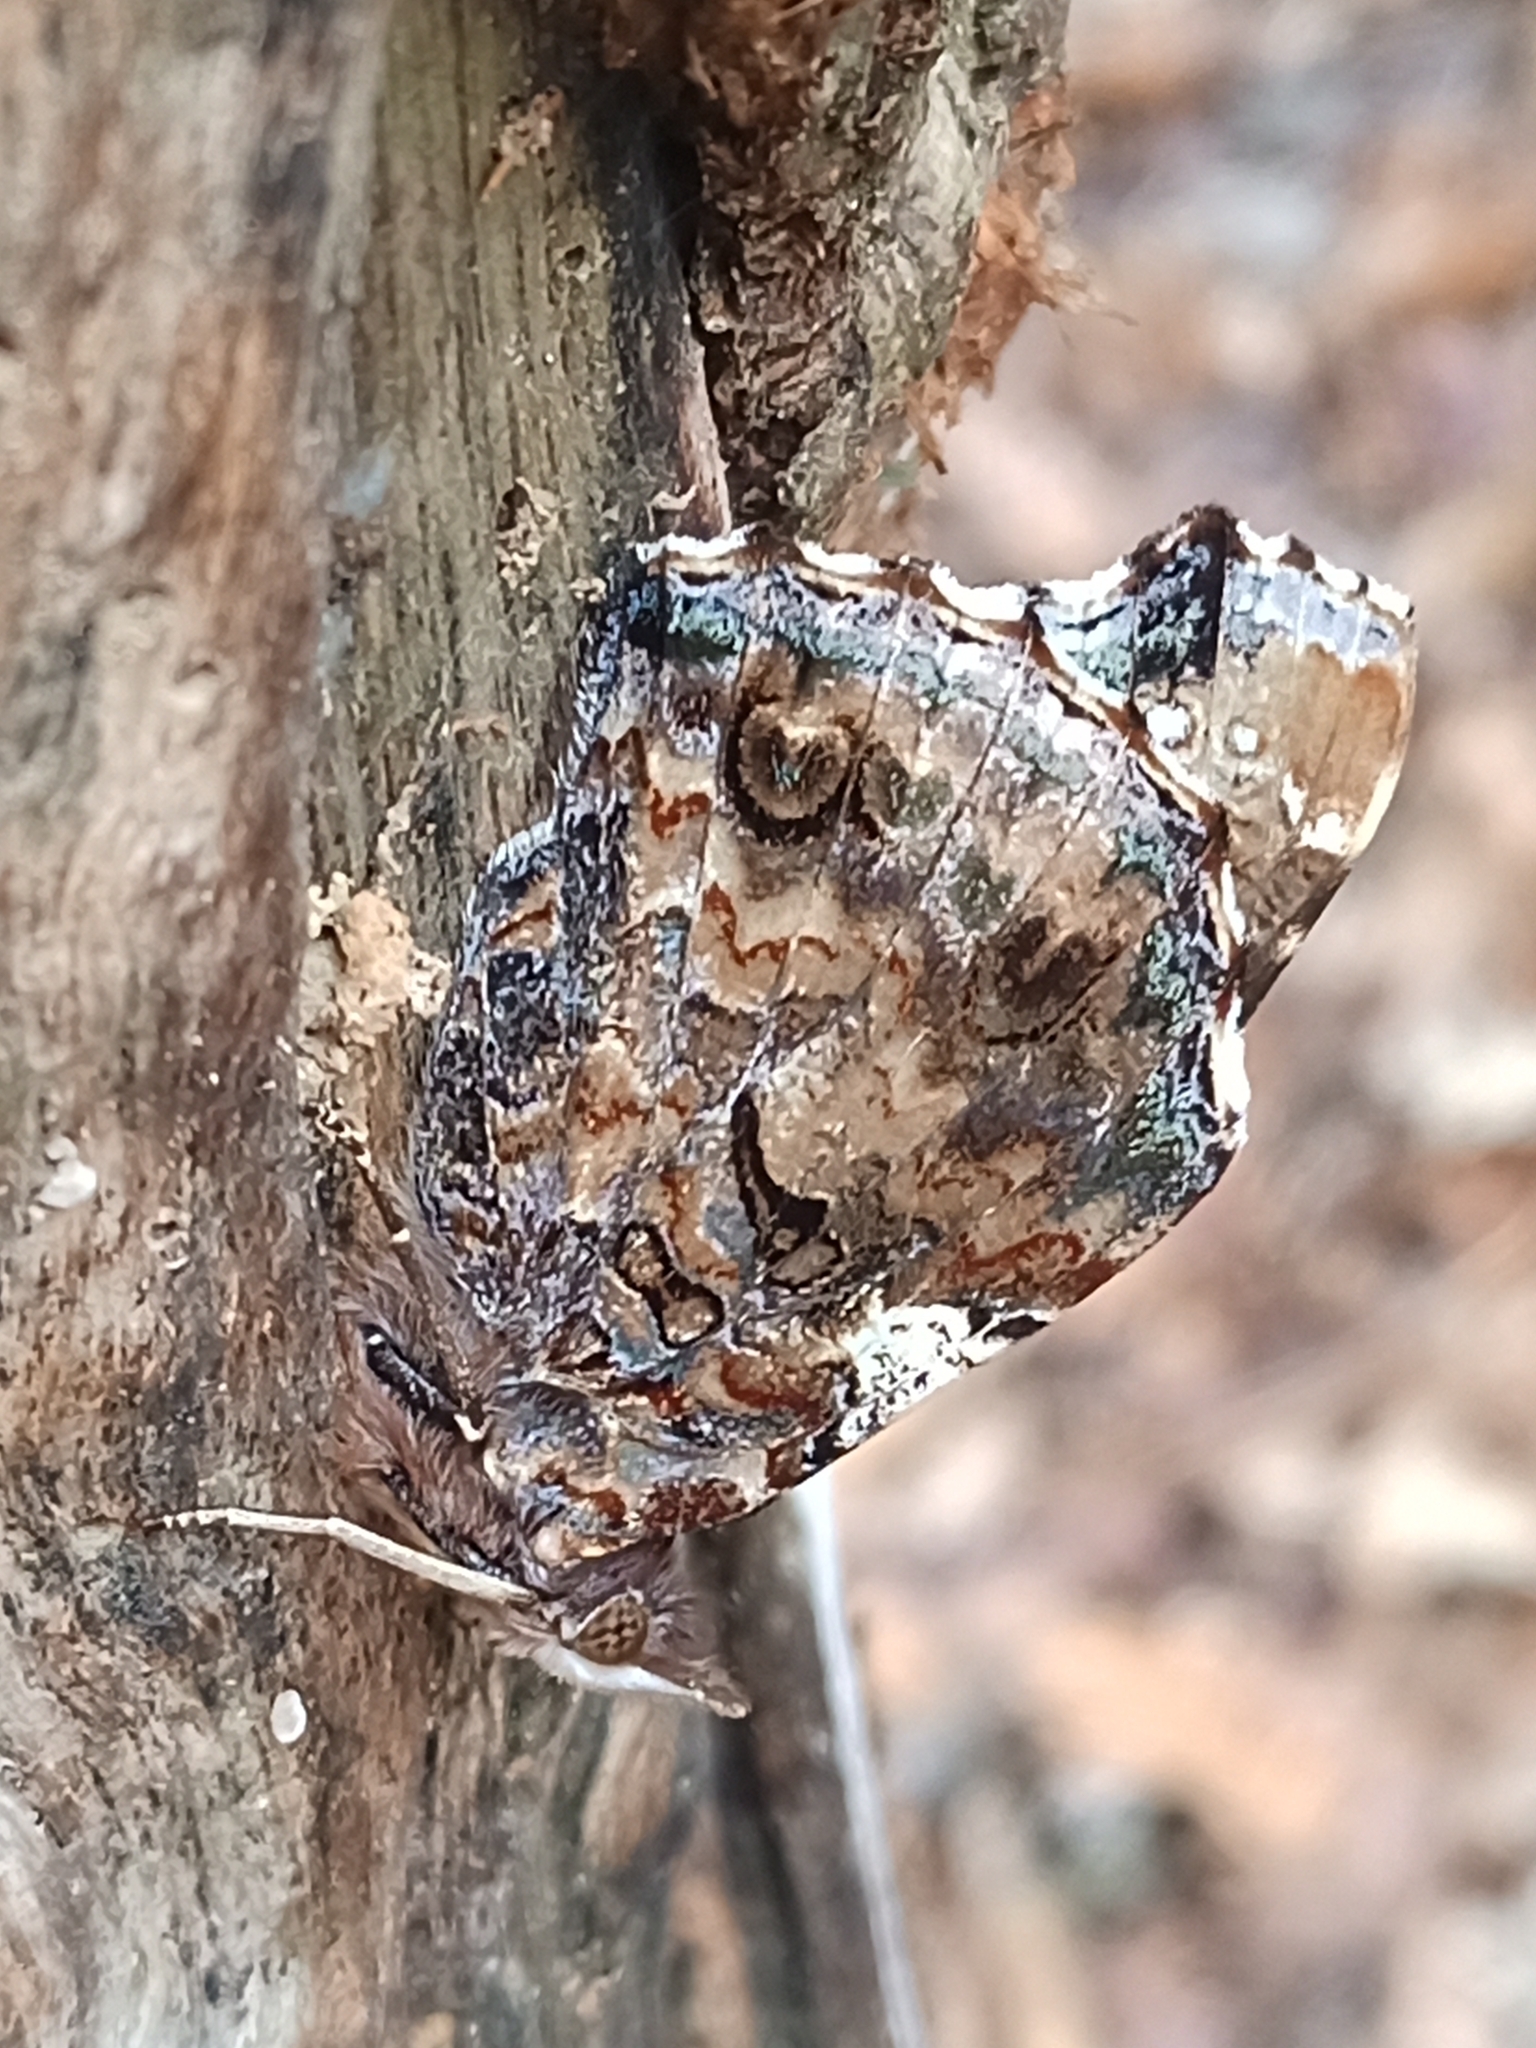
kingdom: Animalia
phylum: Arthropoda
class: Insecta
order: Lepidoptera
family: Nymphalidae
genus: Vanessa
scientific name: Vanessa atalanta
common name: Red admiral
